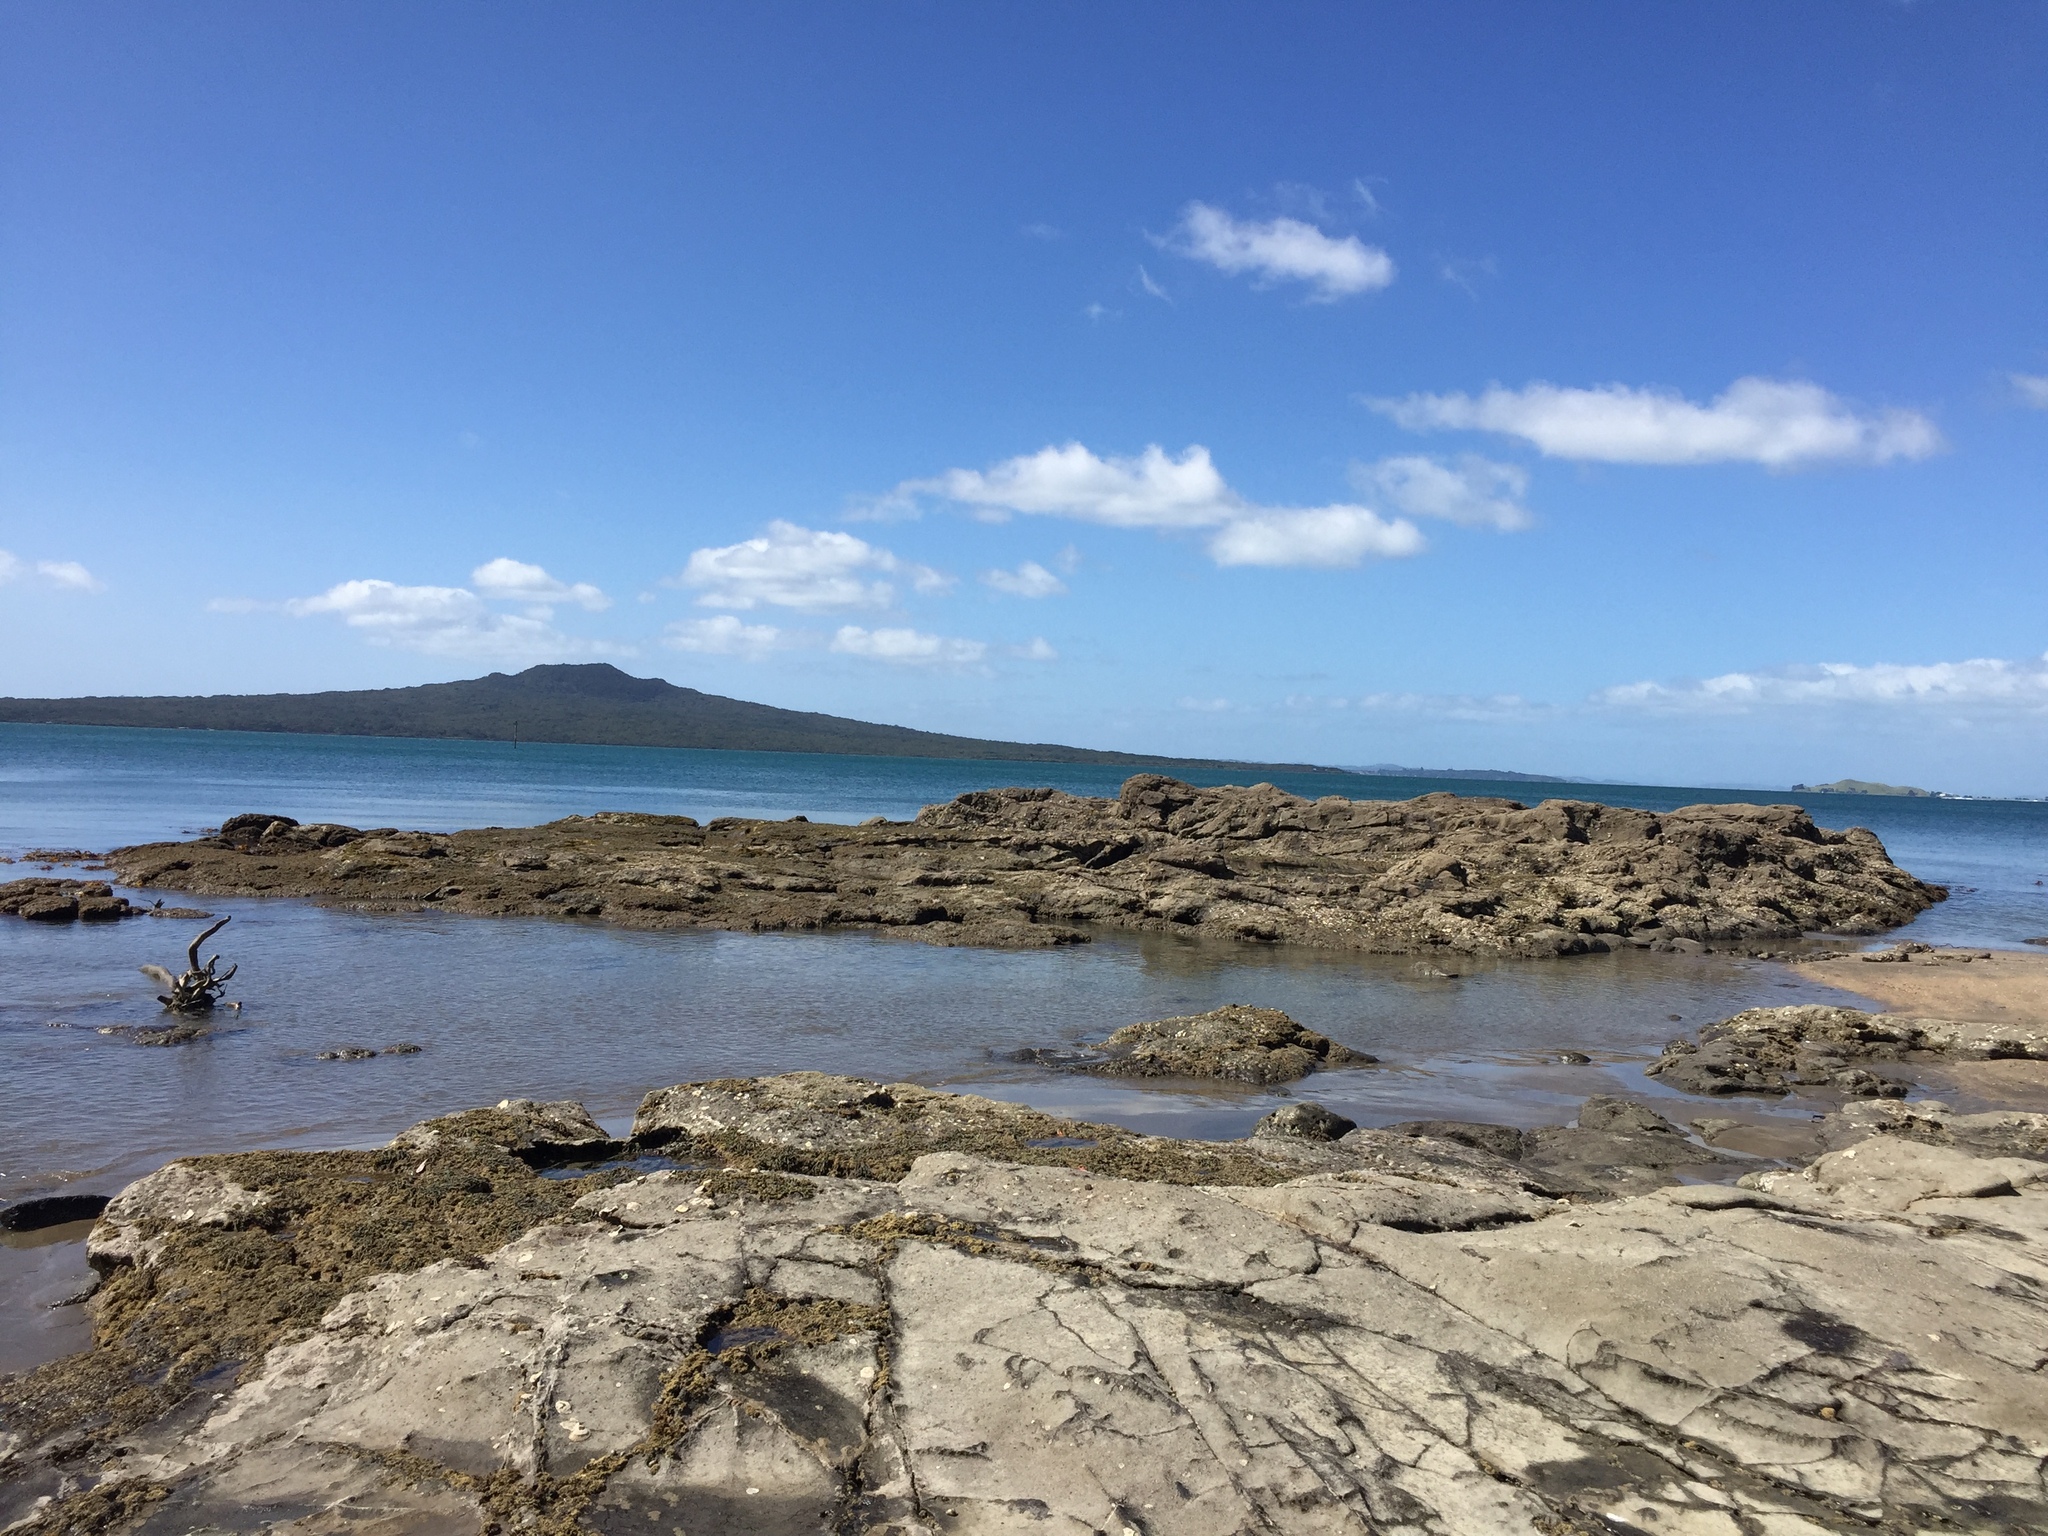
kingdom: Plantae
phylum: Chlorophyta
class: Ulvophyceae
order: Bryopsidales
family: Caulerpaceae
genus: Caulerpa
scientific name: Caulerpa geminata
